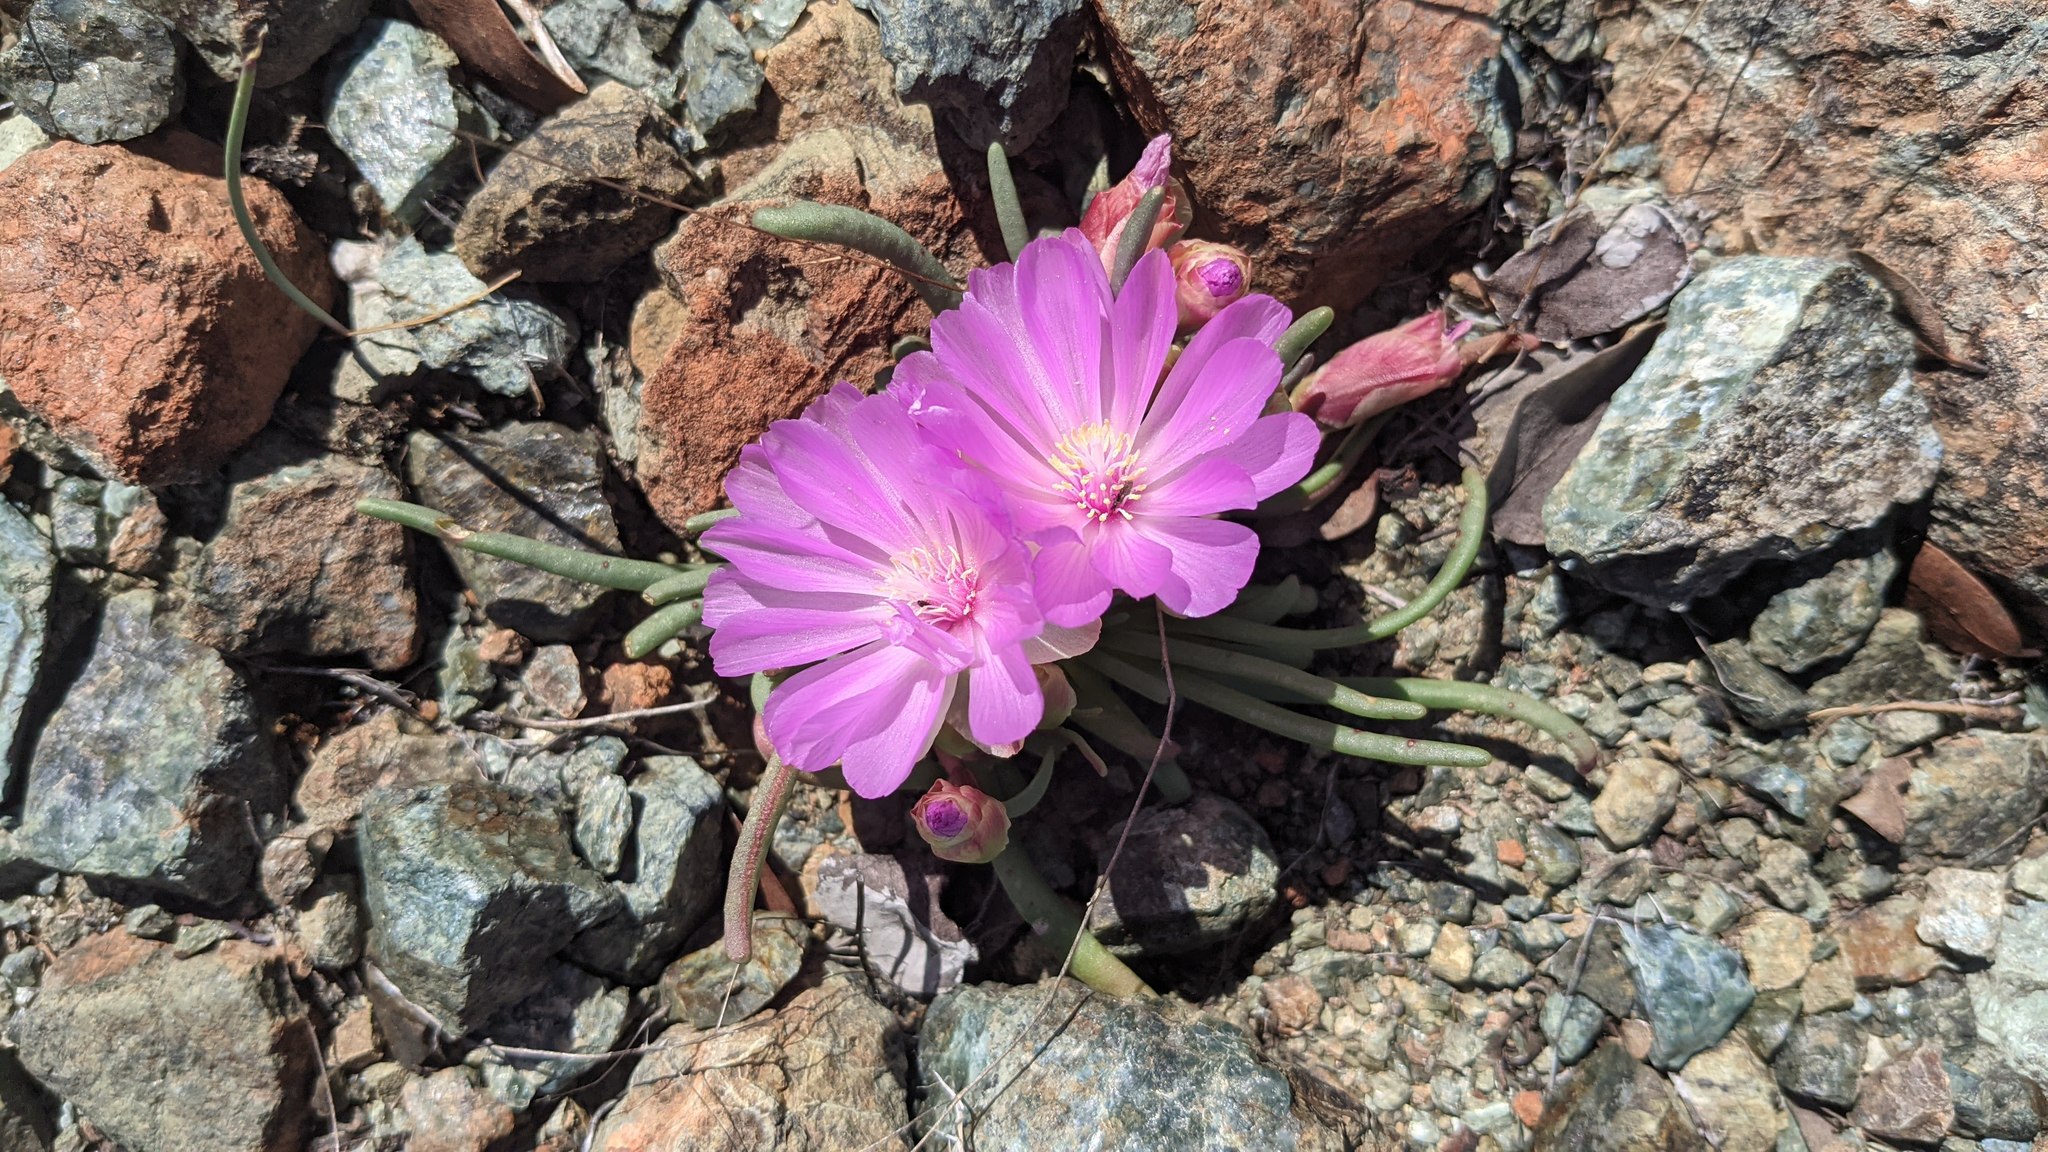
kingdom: Plantae
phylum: Tracheophyta
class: Magnoliopsida
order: Caryophyllales
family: Montiaceae
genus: Lewisia
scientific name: Lewisia rediviva
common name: Bitter-root
